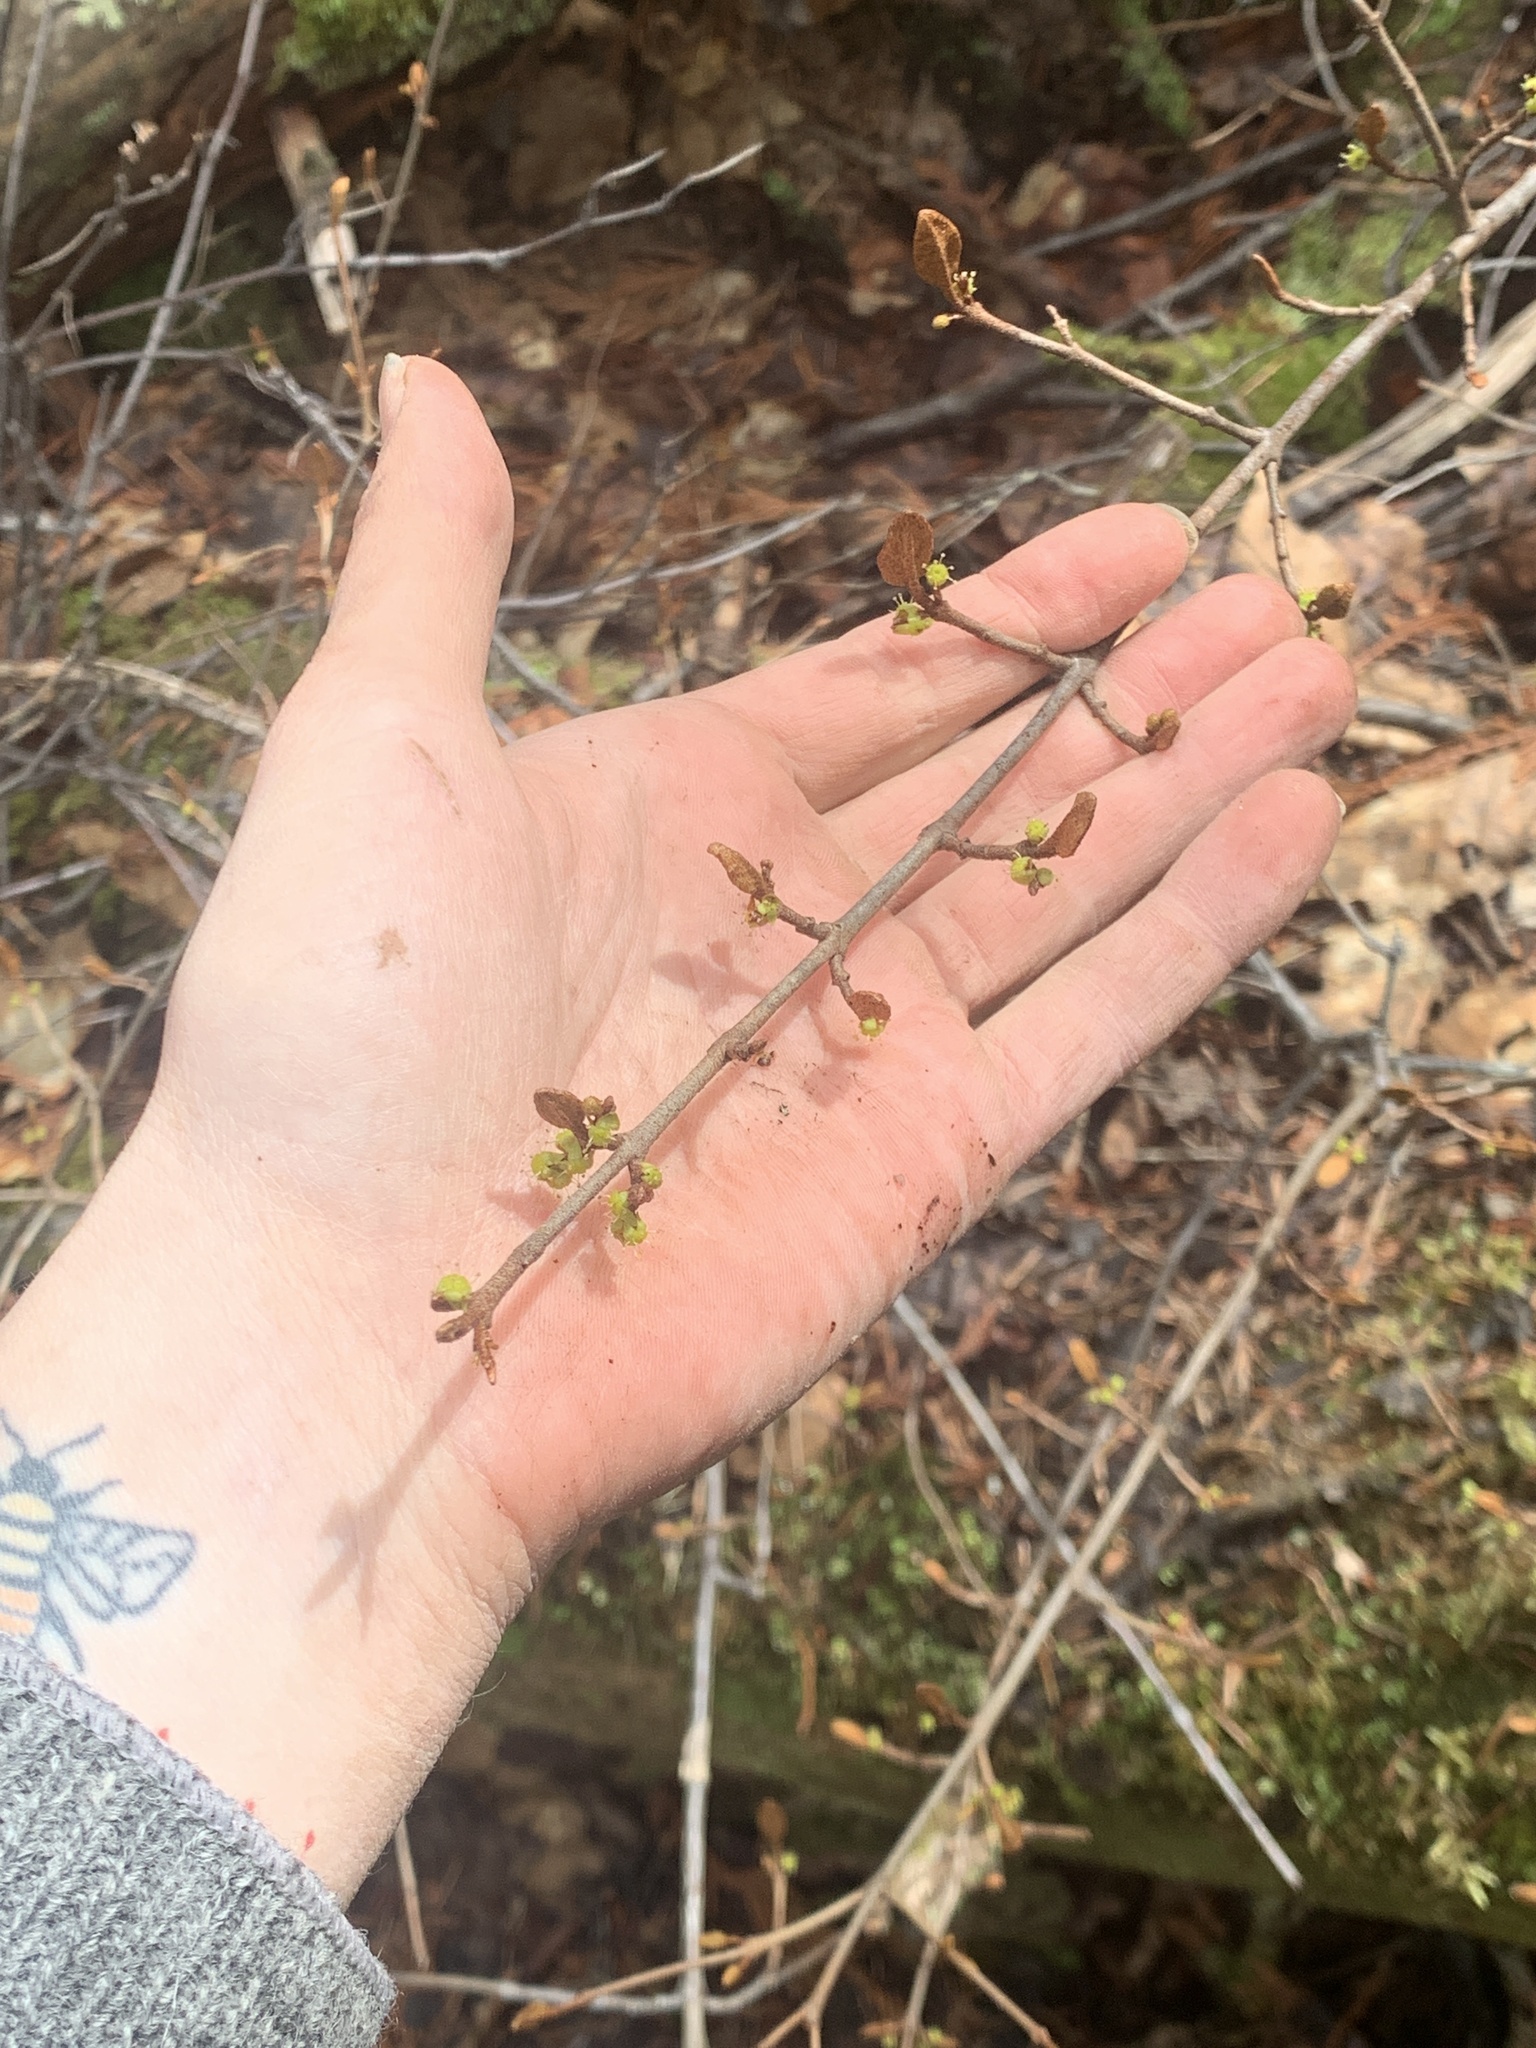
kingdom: Plantae
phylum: Tracheophyta
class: Magnoliopsida
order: Rosales
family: Elaeagnaceae
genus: Shepherdia
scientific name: Shepherdia canadensis
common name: Soapberry
